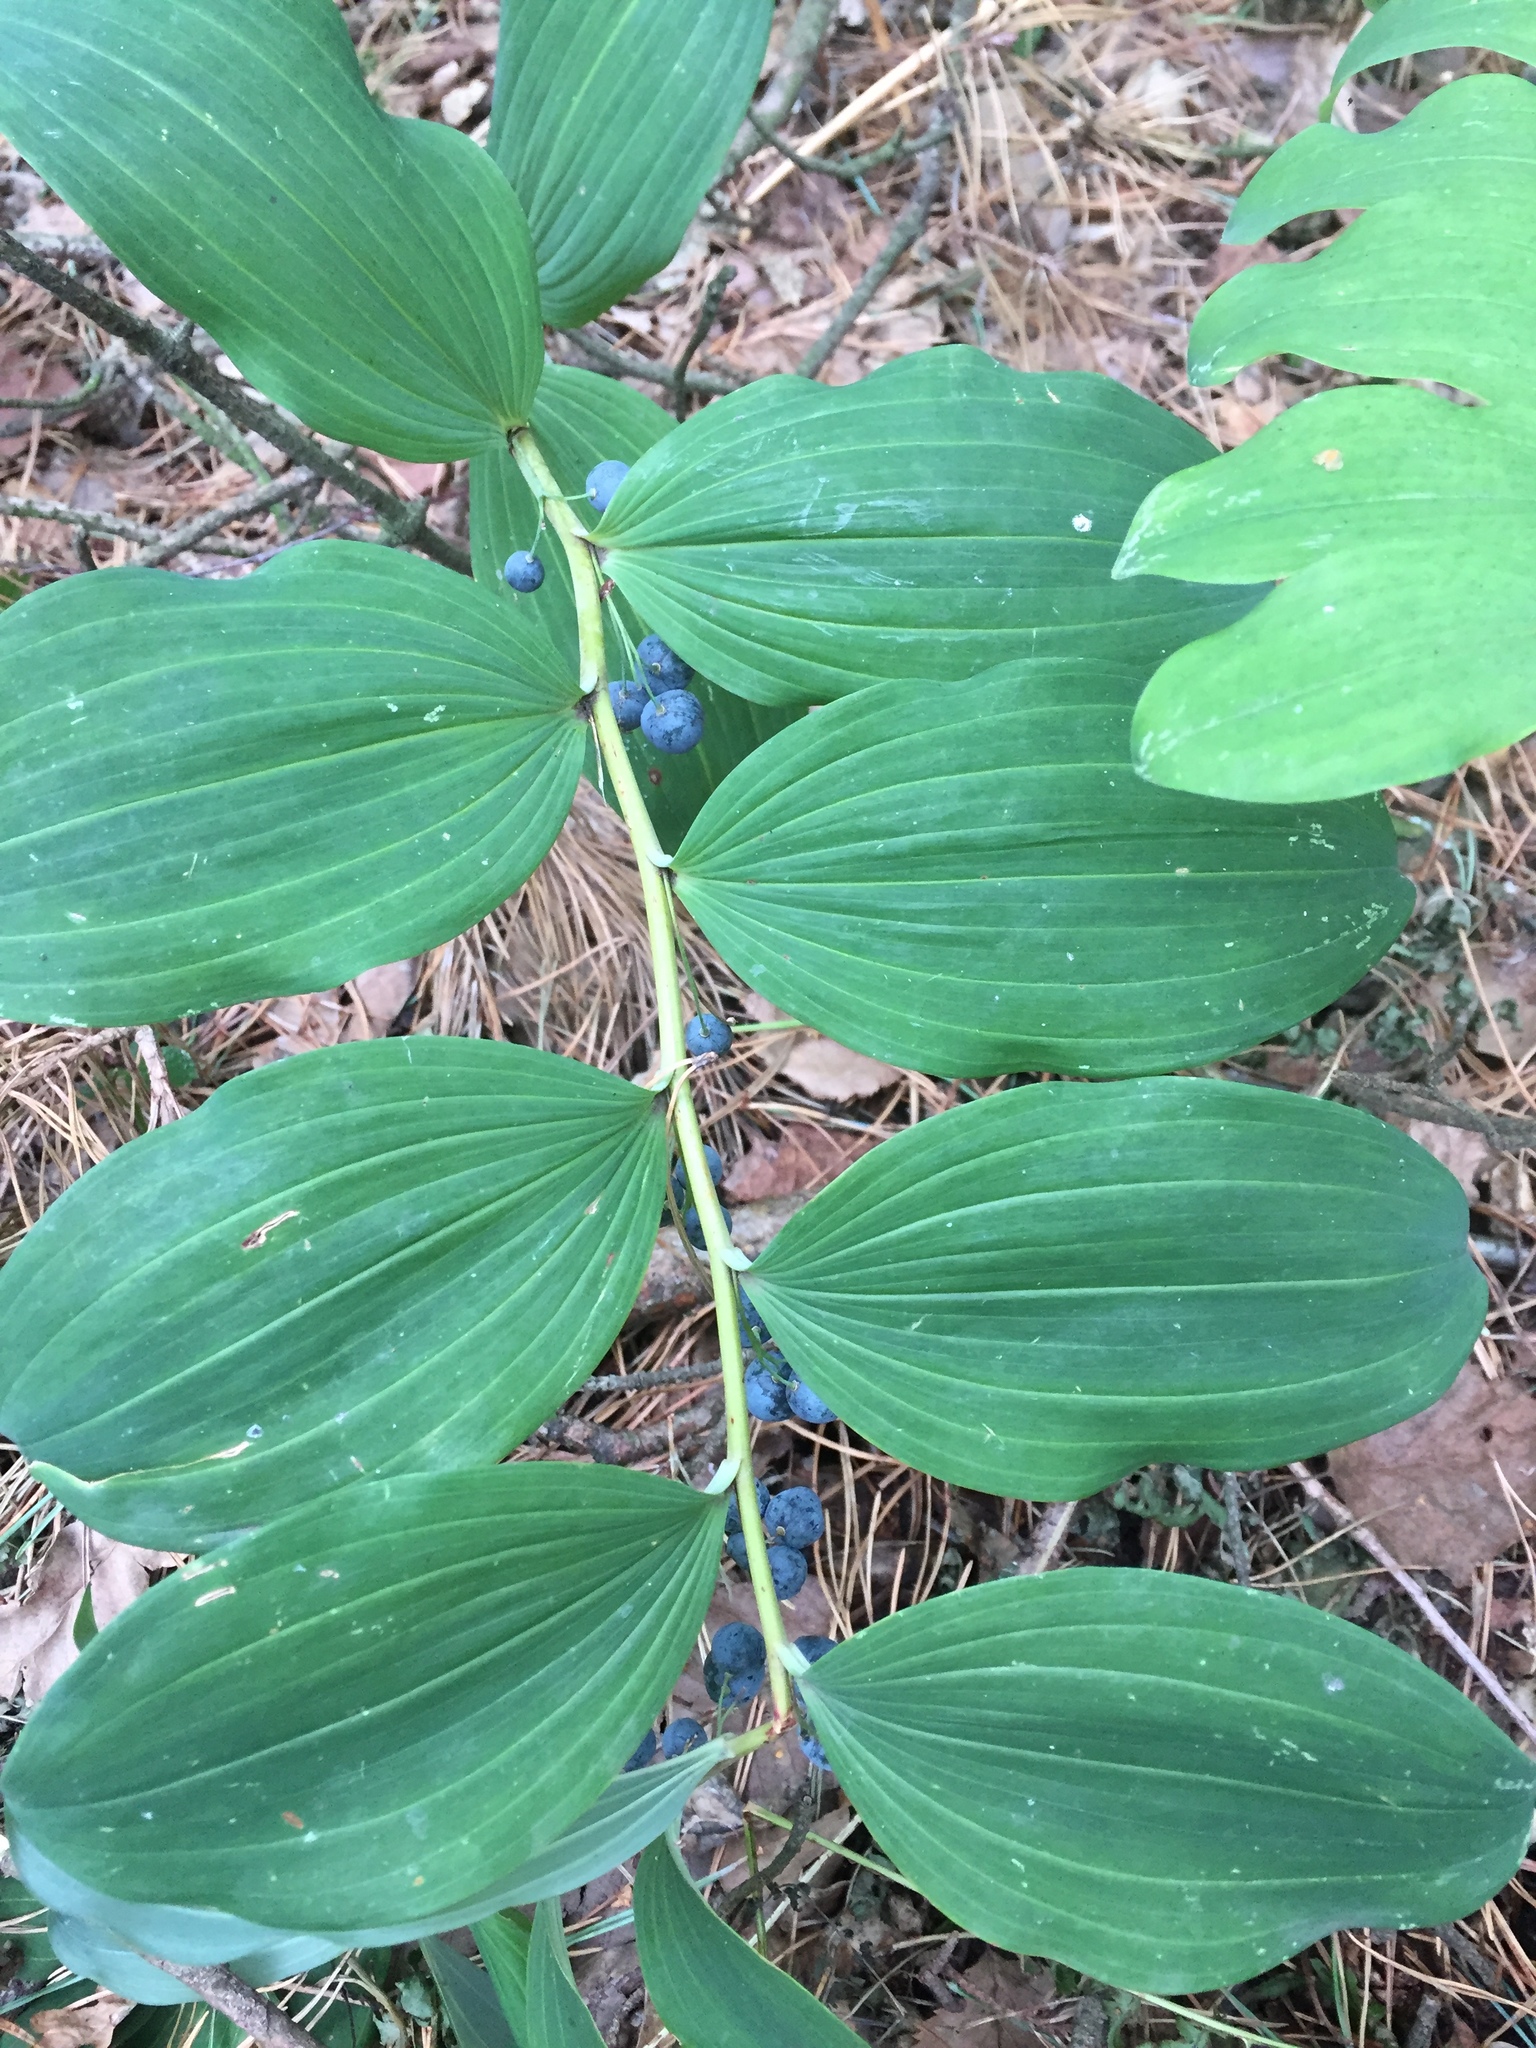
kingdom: Plantae
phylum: Tracheophyta
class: Liliopsida
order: Asparagales
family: Asparagaceae
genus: Polygonatum
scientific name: Polygonatum multiflorum
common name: Solomon's-seal
